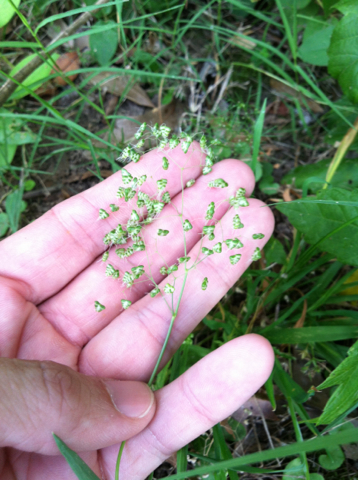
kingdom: Plantae
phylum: Tracheophyta
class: Liliopsida
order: Poales
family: Poaceae
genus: Briza
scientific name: Briza minor
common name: Lesser quaking-grass
